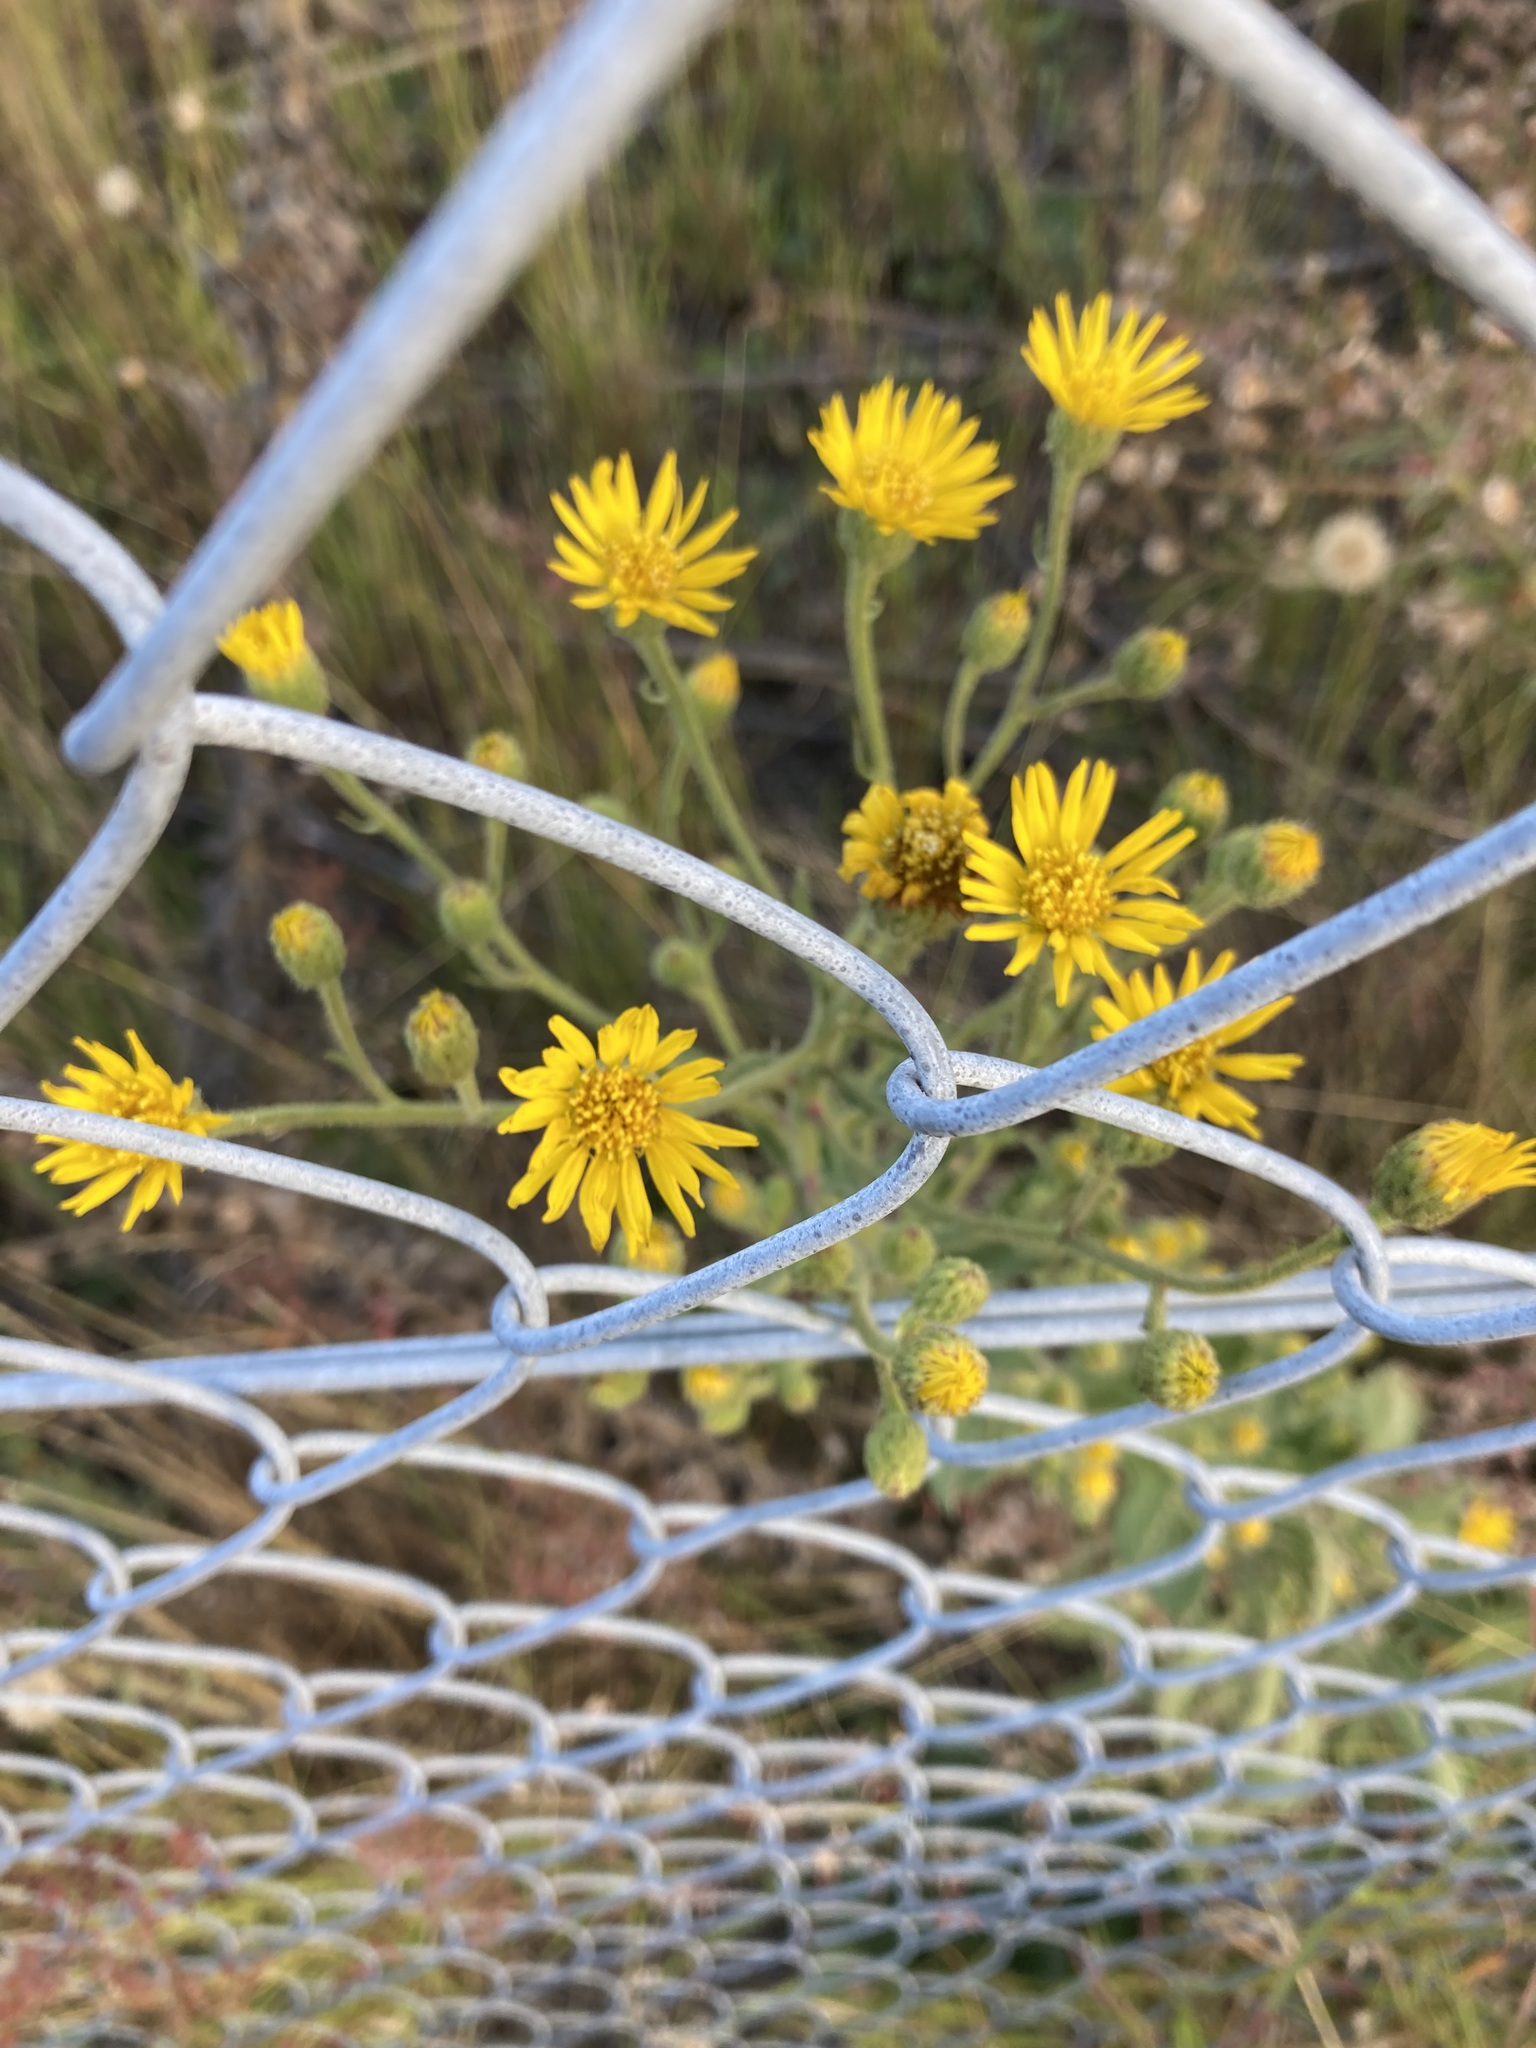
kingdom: Plantae
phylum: Tracheophyta
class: Magnoliopsida
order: Asterales
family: Asteraceae
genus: Heterotheca
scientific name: Heterotheca grandiflora
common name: Telegraphweed
